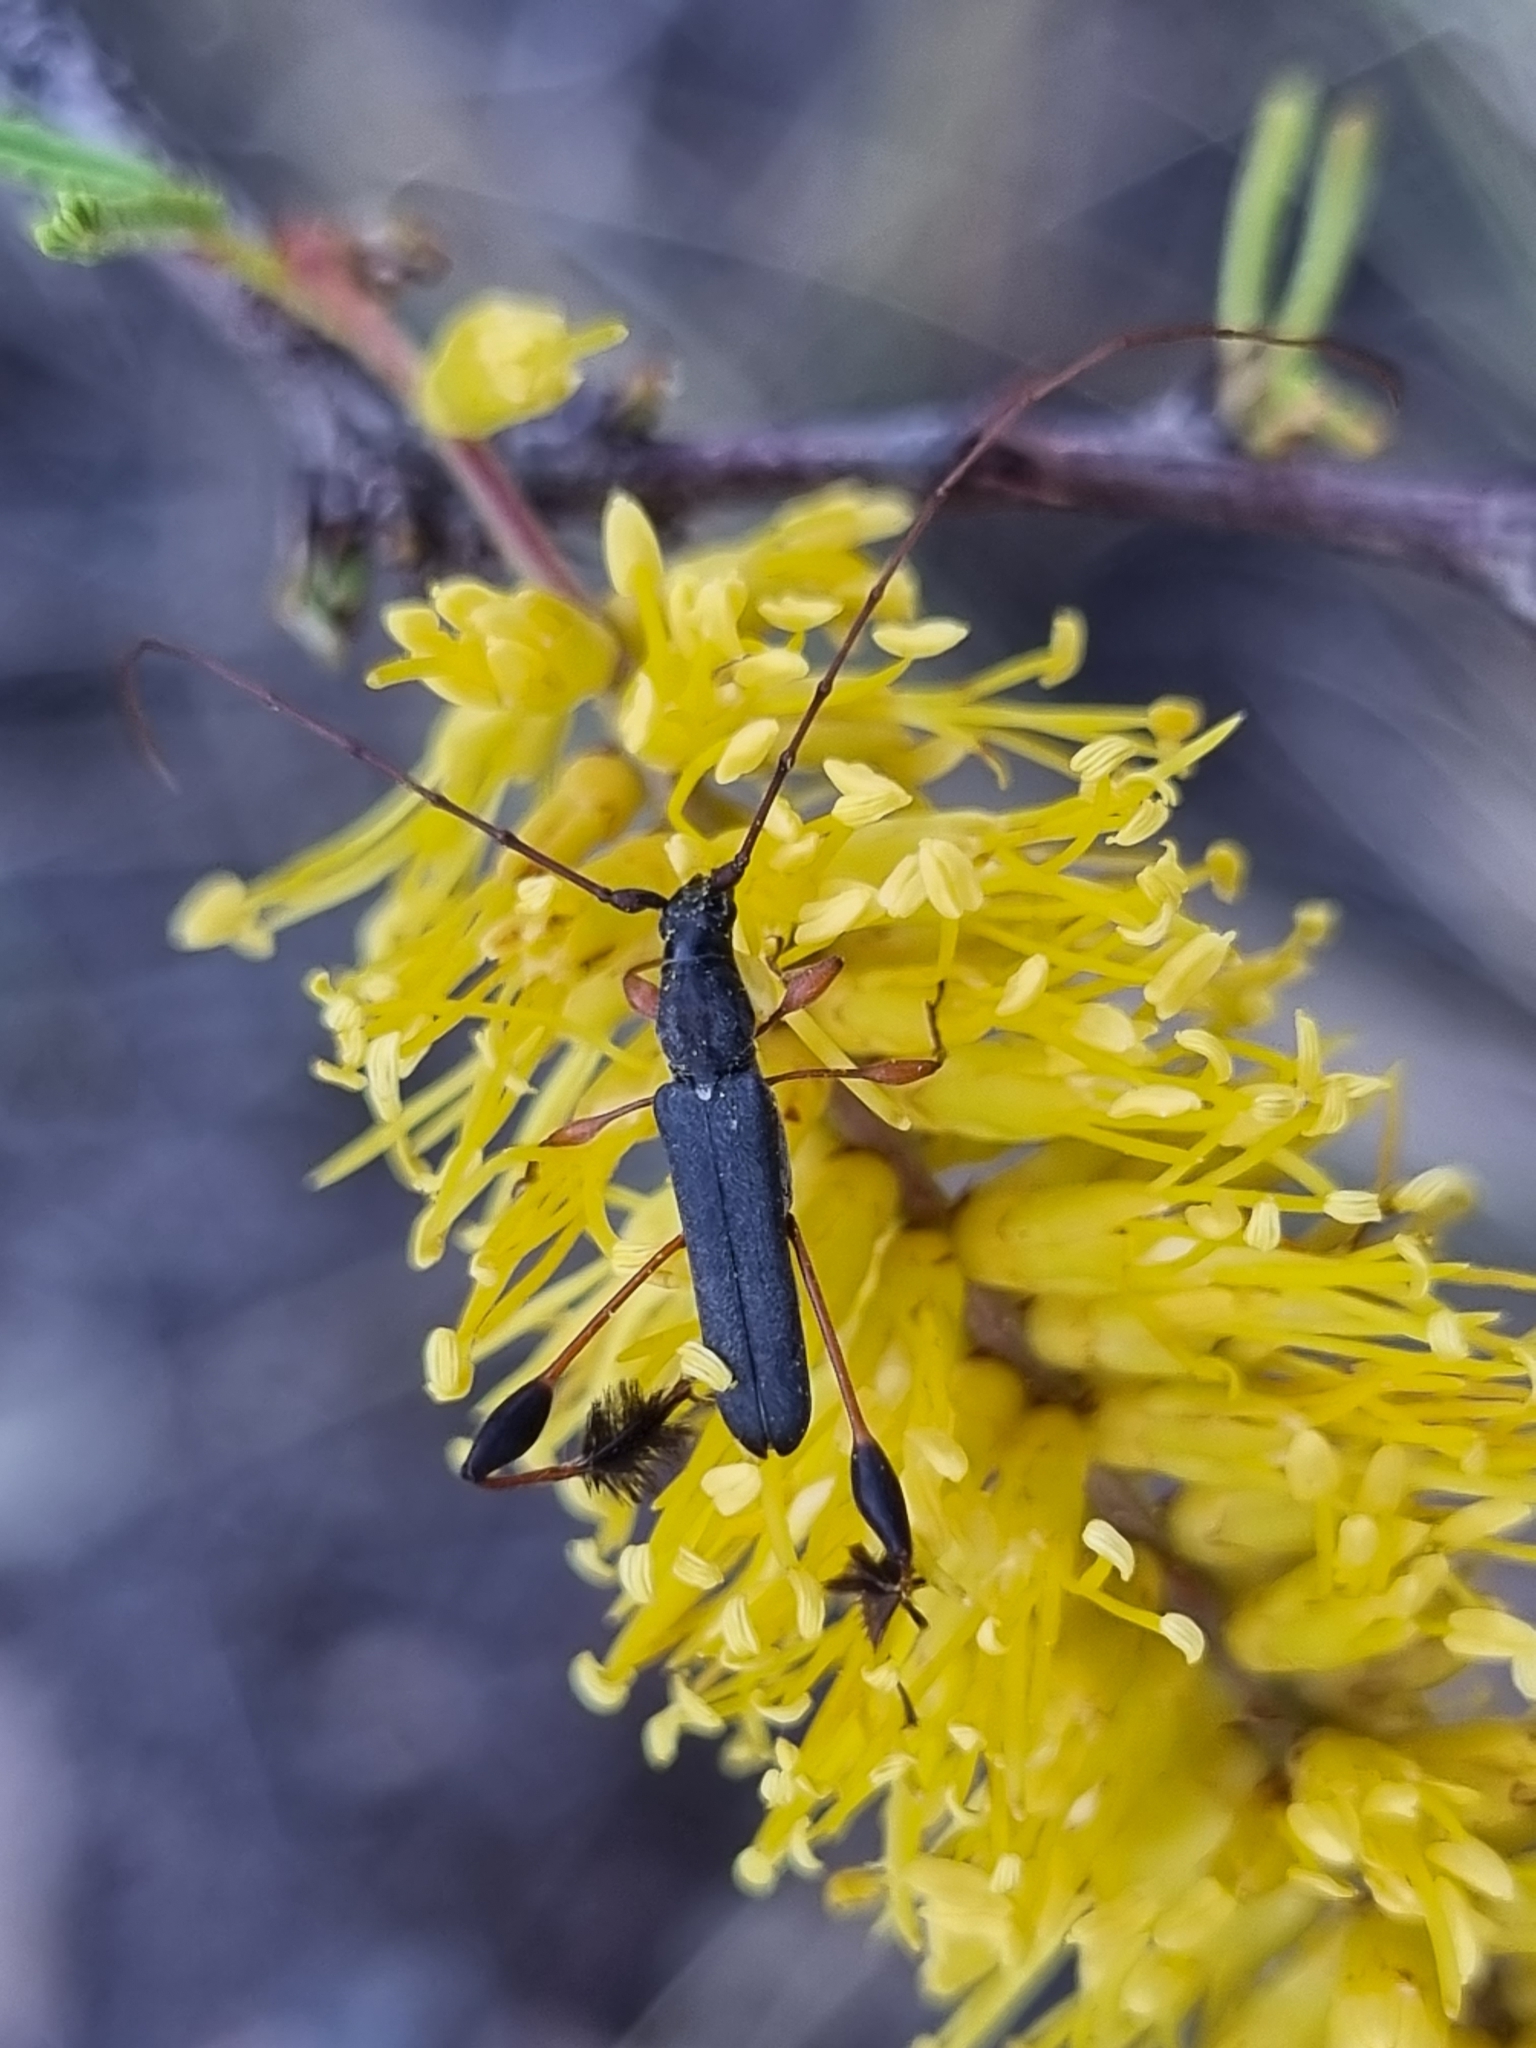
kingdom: Animalia
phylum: Arthropoda
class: Insecta
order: Coleoptera
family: Cerambycidae
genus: Dirocoremia
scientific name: Dirocoremia bruchi
